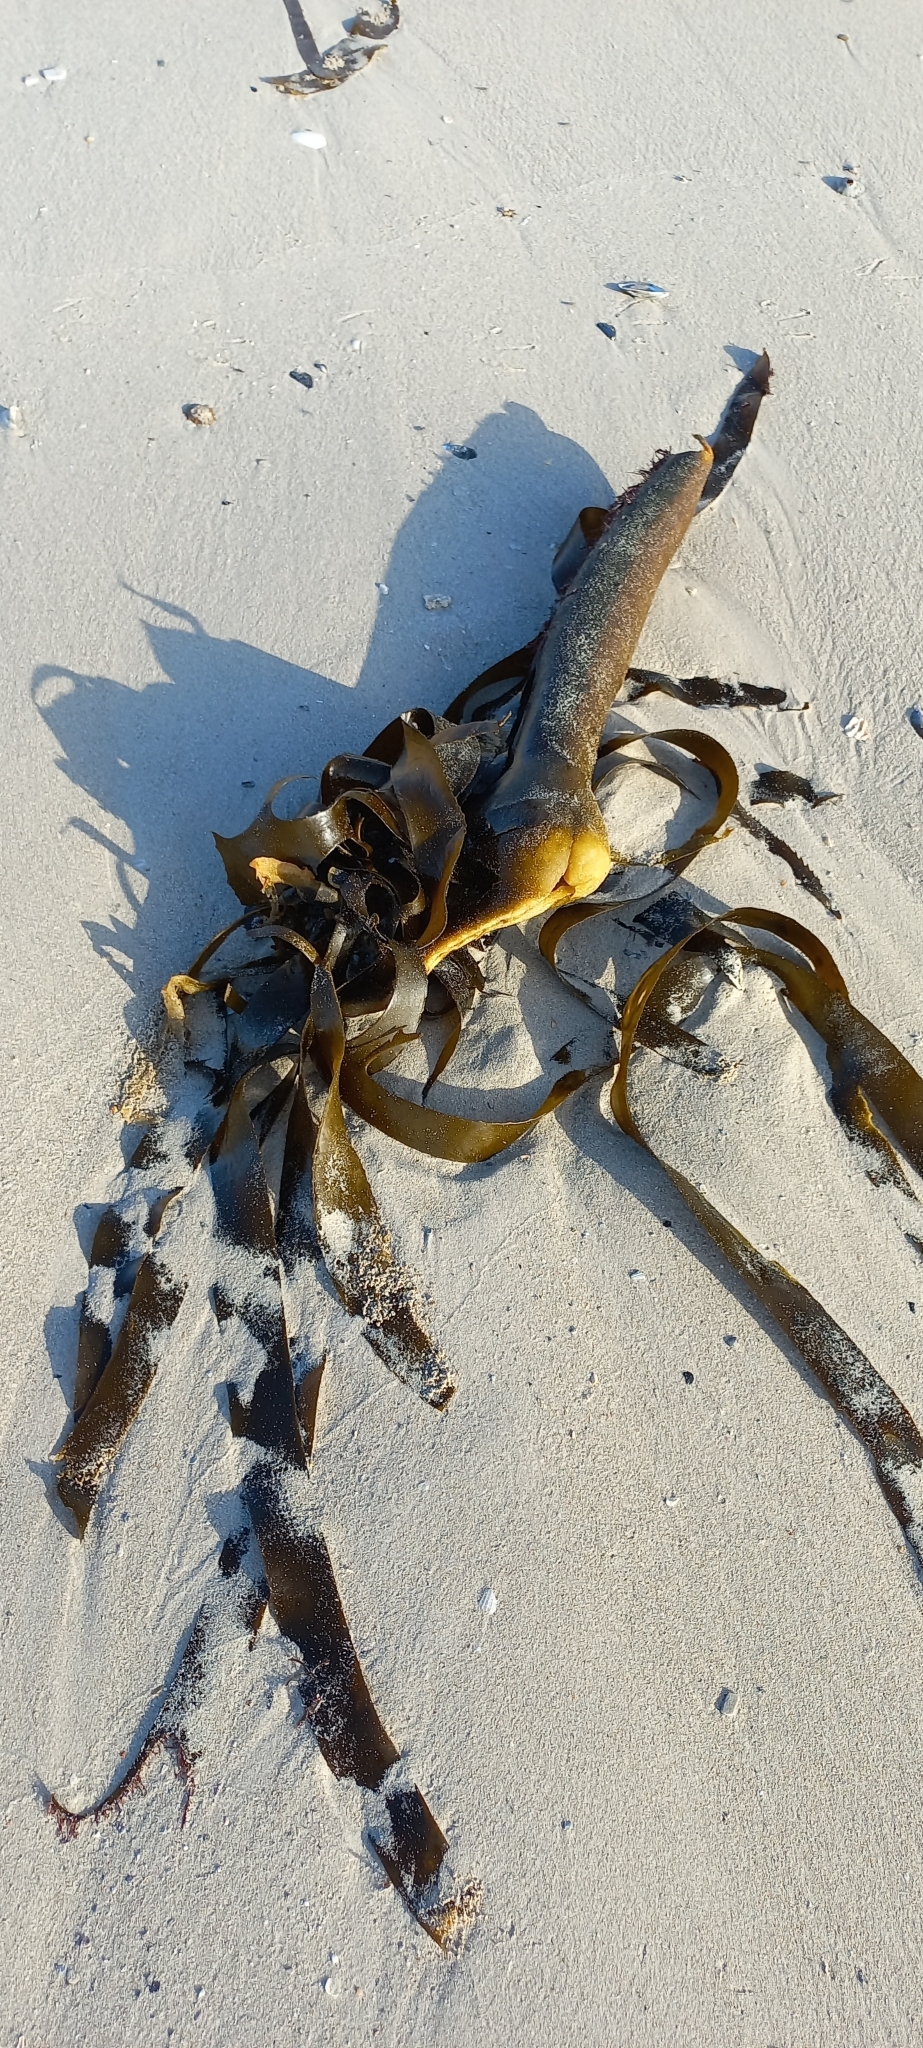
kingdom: Chromista
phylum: Ochrophyta
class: Phaeophyceae
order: Laminariales
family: Lessoniaceae
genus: Ecklonia
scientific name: Ecklonia
